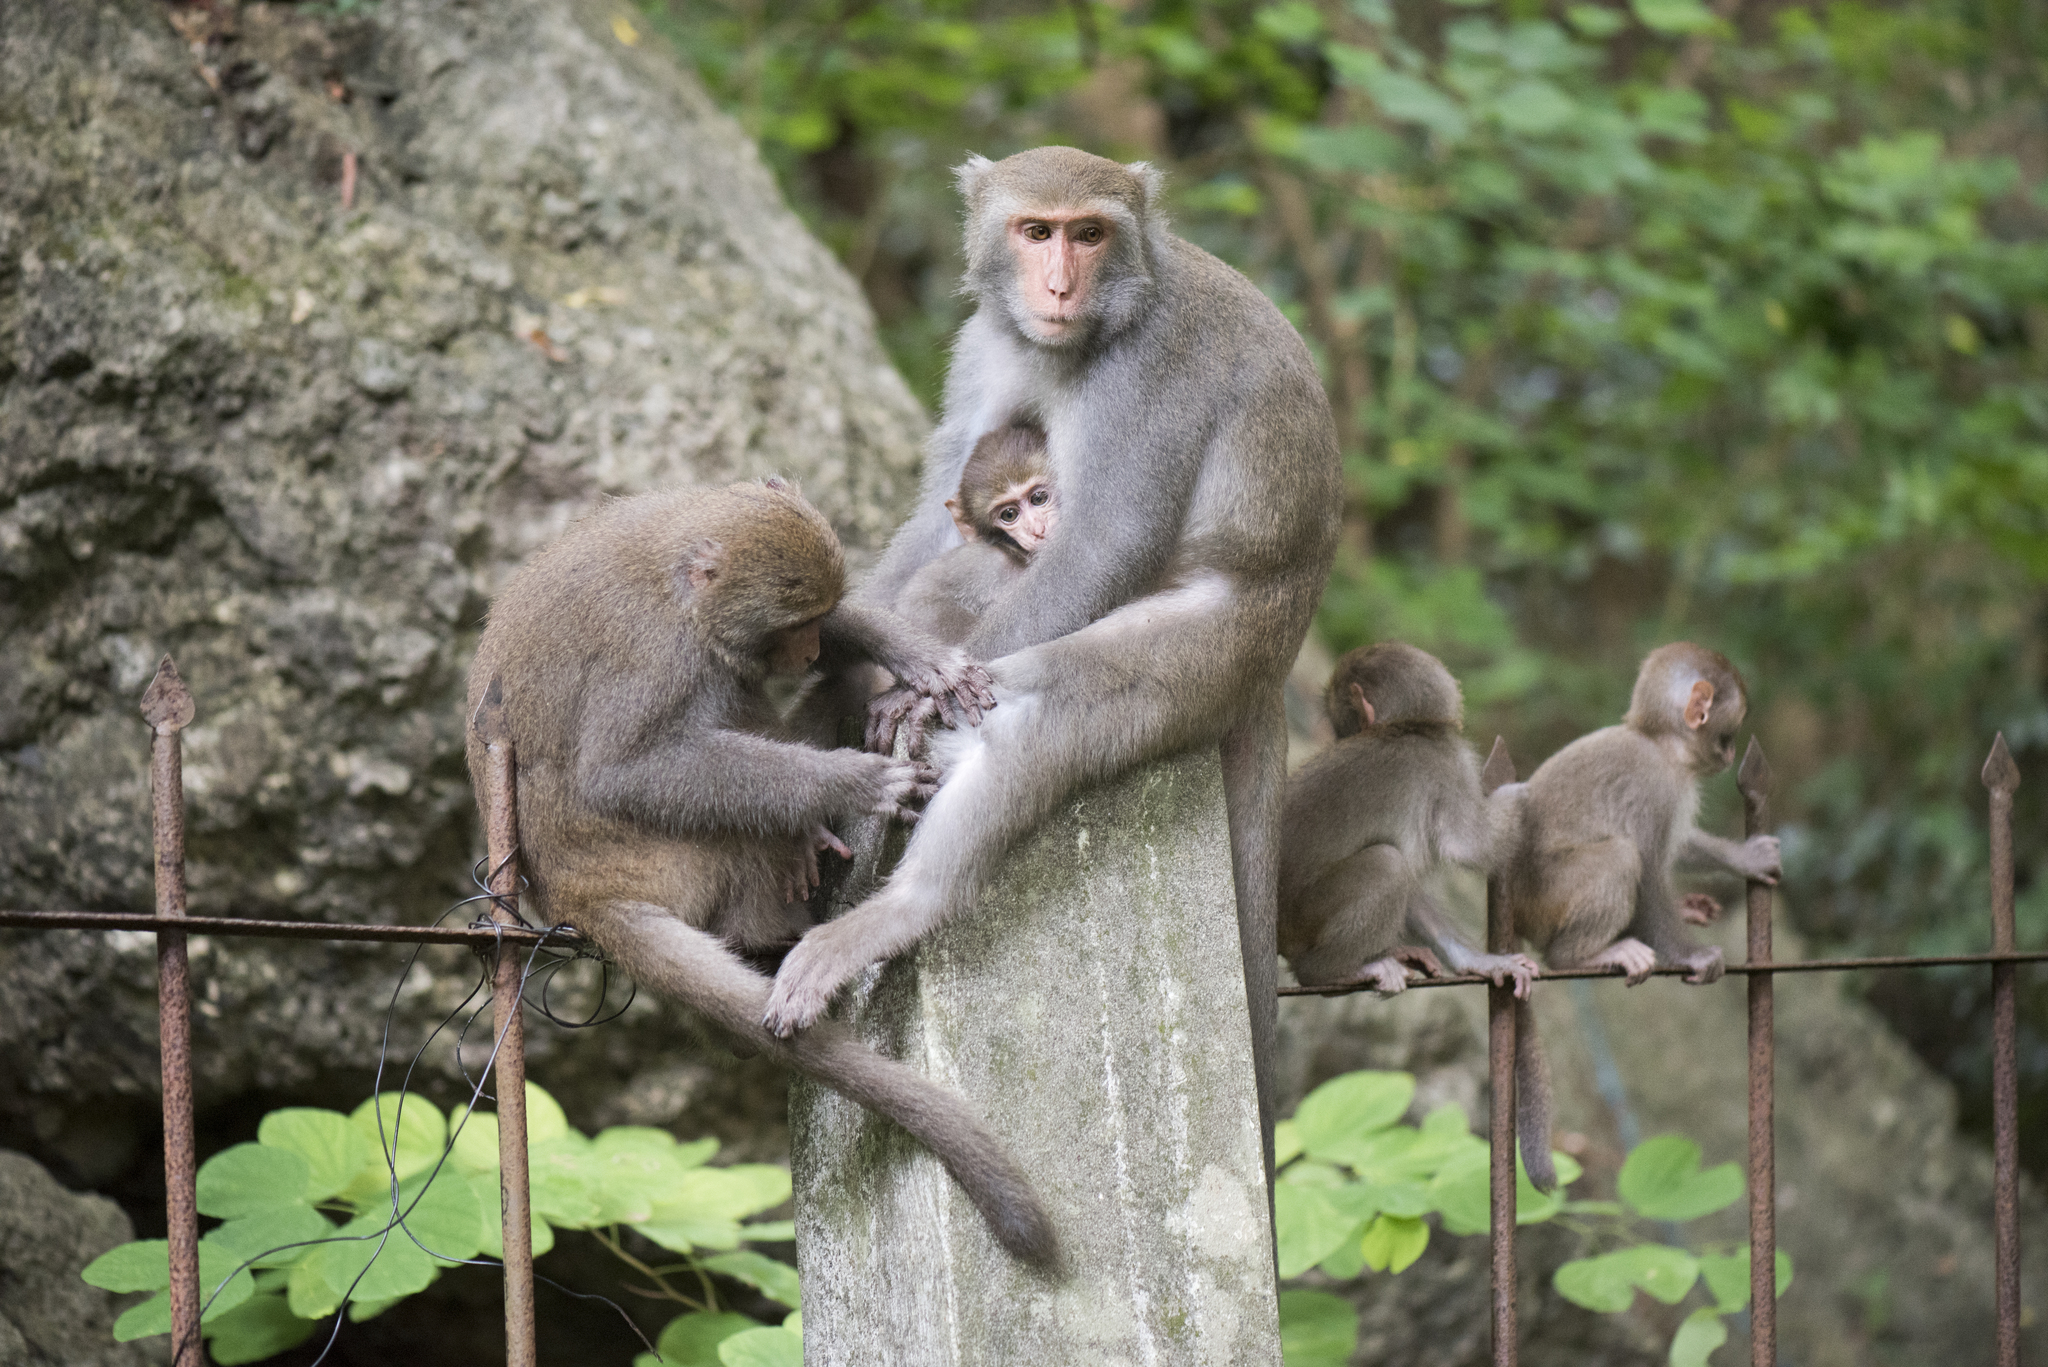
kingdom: Animalia
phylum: Chordata
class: Mammalia
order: Primates
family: Cercopithecidae
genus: Macaca
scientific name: Macaca cyclopis
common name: Formosan rock macaque
